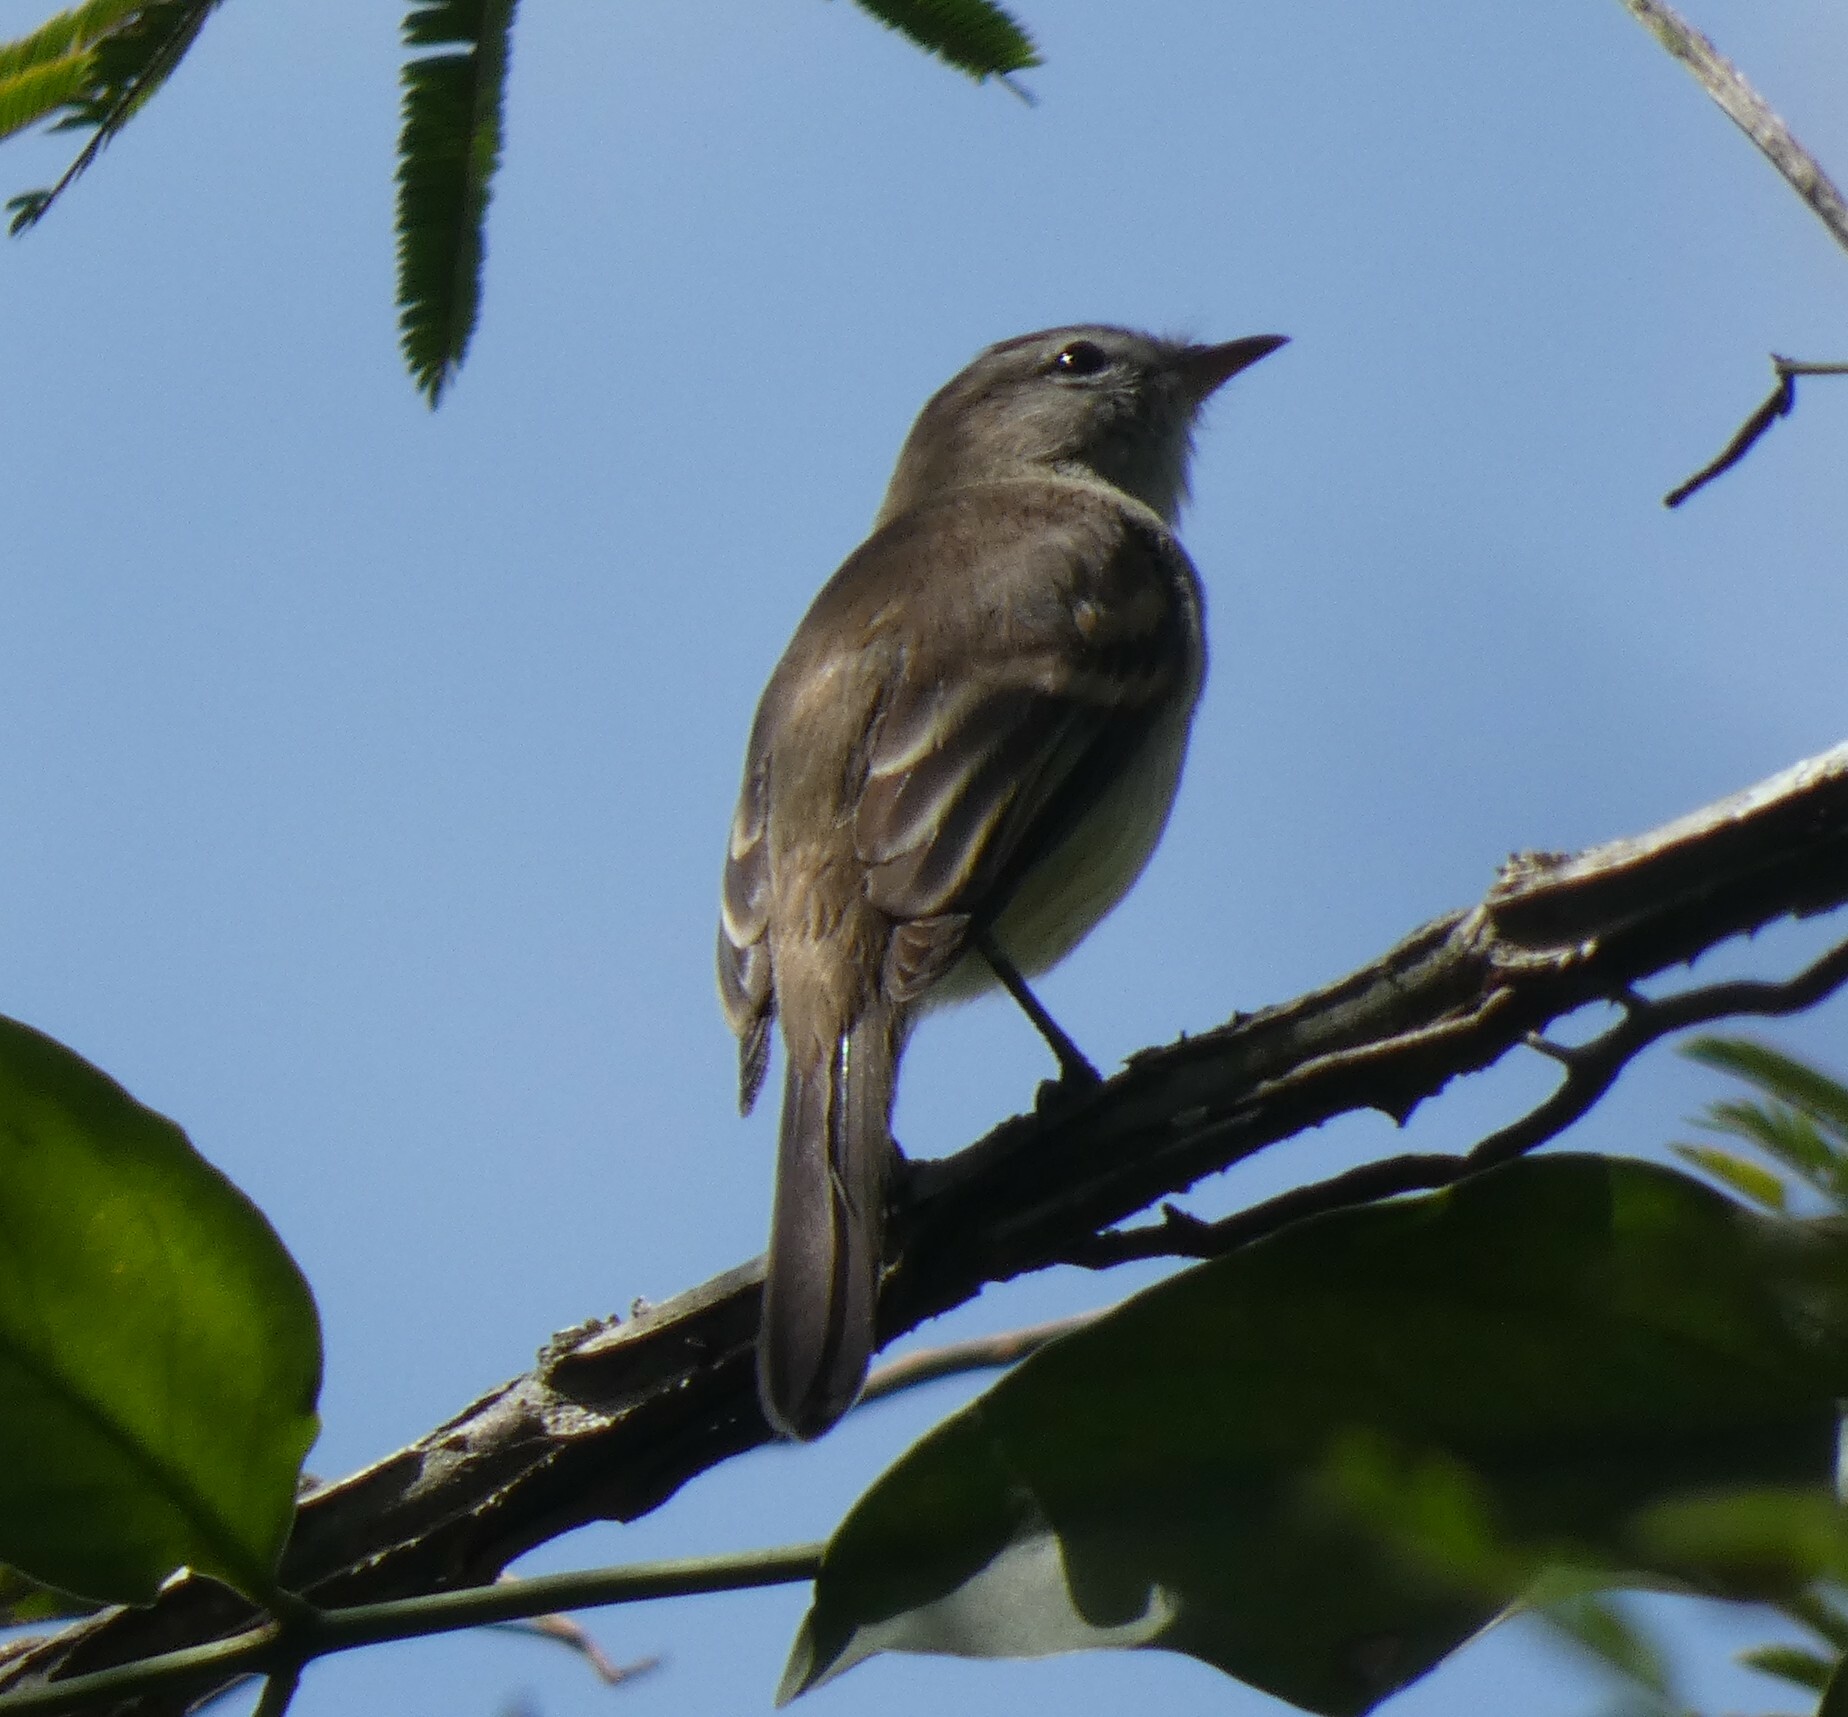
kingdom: Animalia
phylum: Chordata
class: Aves
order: Passeriformes
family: Tyrannidae
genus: Phaeomyias
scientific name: Phaeomyias murina
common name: Mouse-colored tyrannulet
